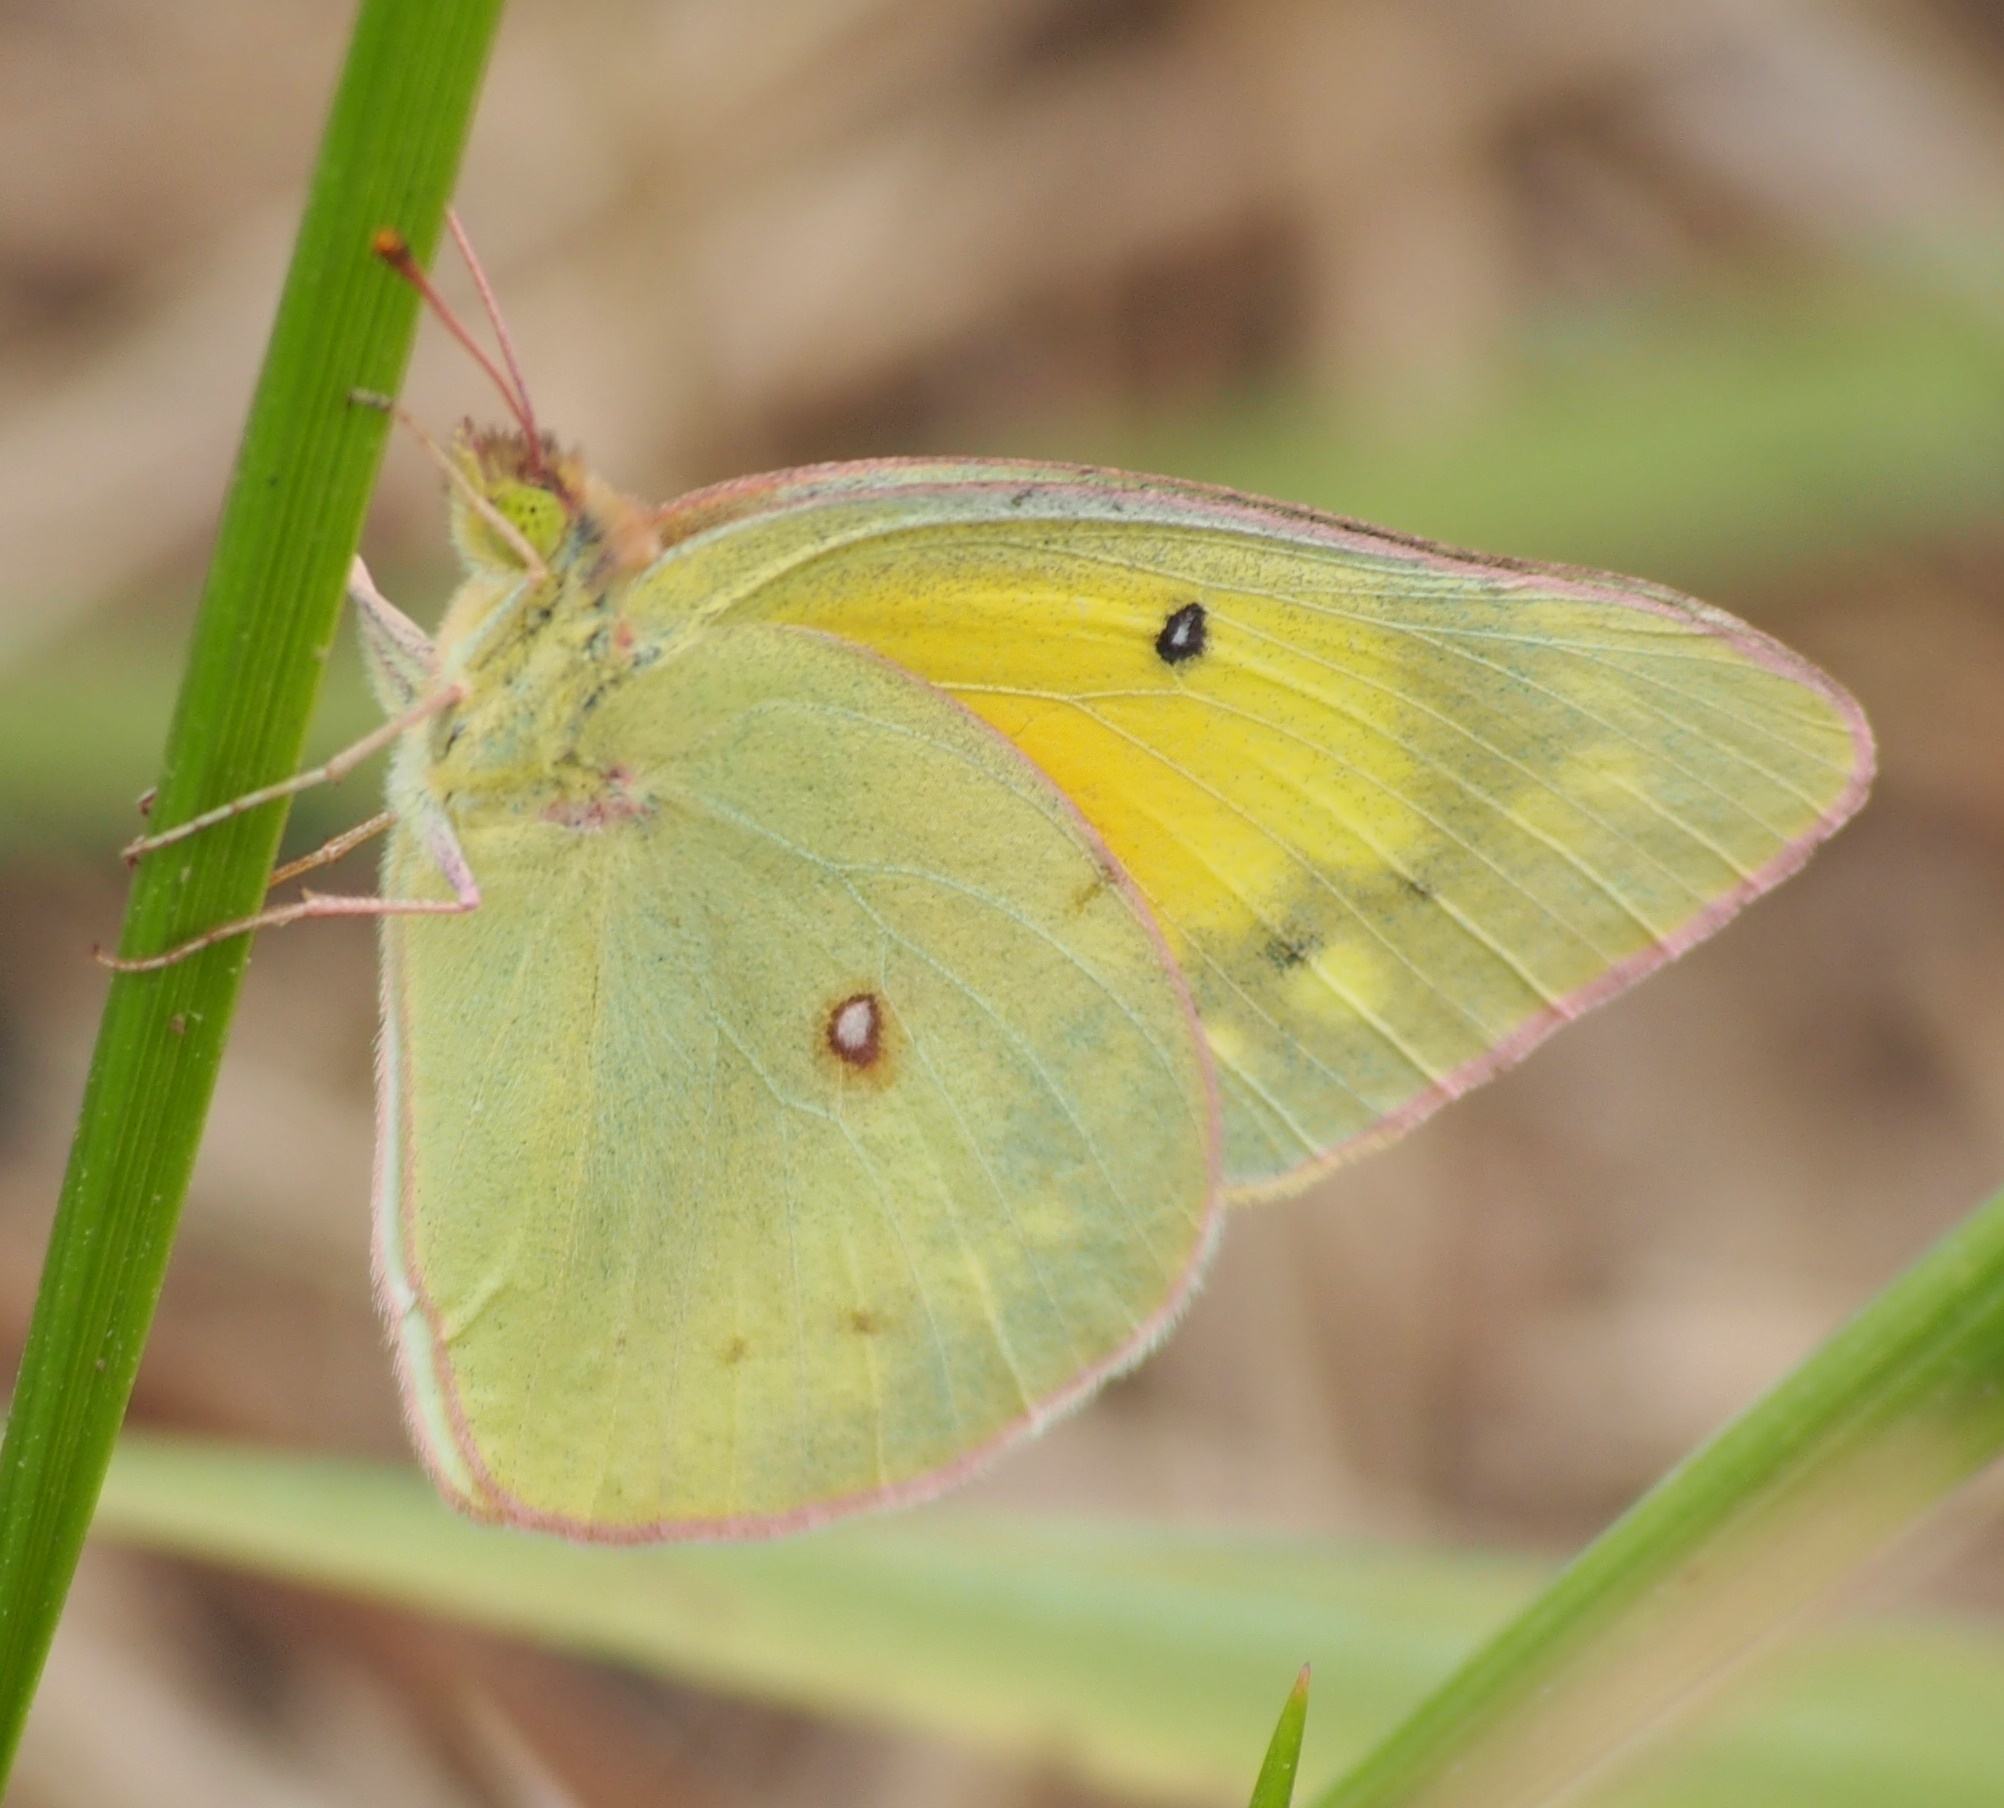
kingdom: Animalia
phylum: Arthropoda
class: Insecta
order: Lepidoptera
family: Pieridae
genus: Colias
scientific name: Colias eurytheme
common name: Alfalfa butterfly
